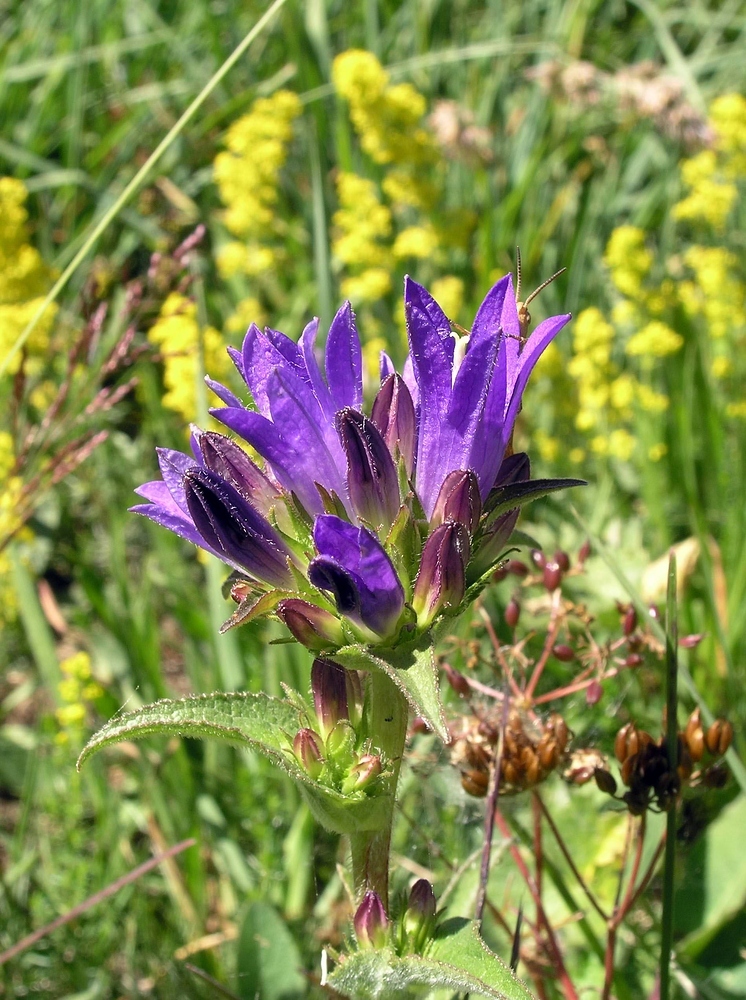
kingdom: Plantae
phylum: Tracheophyta
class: Magnoliopsida
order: Asterales
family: Campanulaceae
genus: Campanula
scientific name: Campanula glomerata
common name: Clustered bellflower
